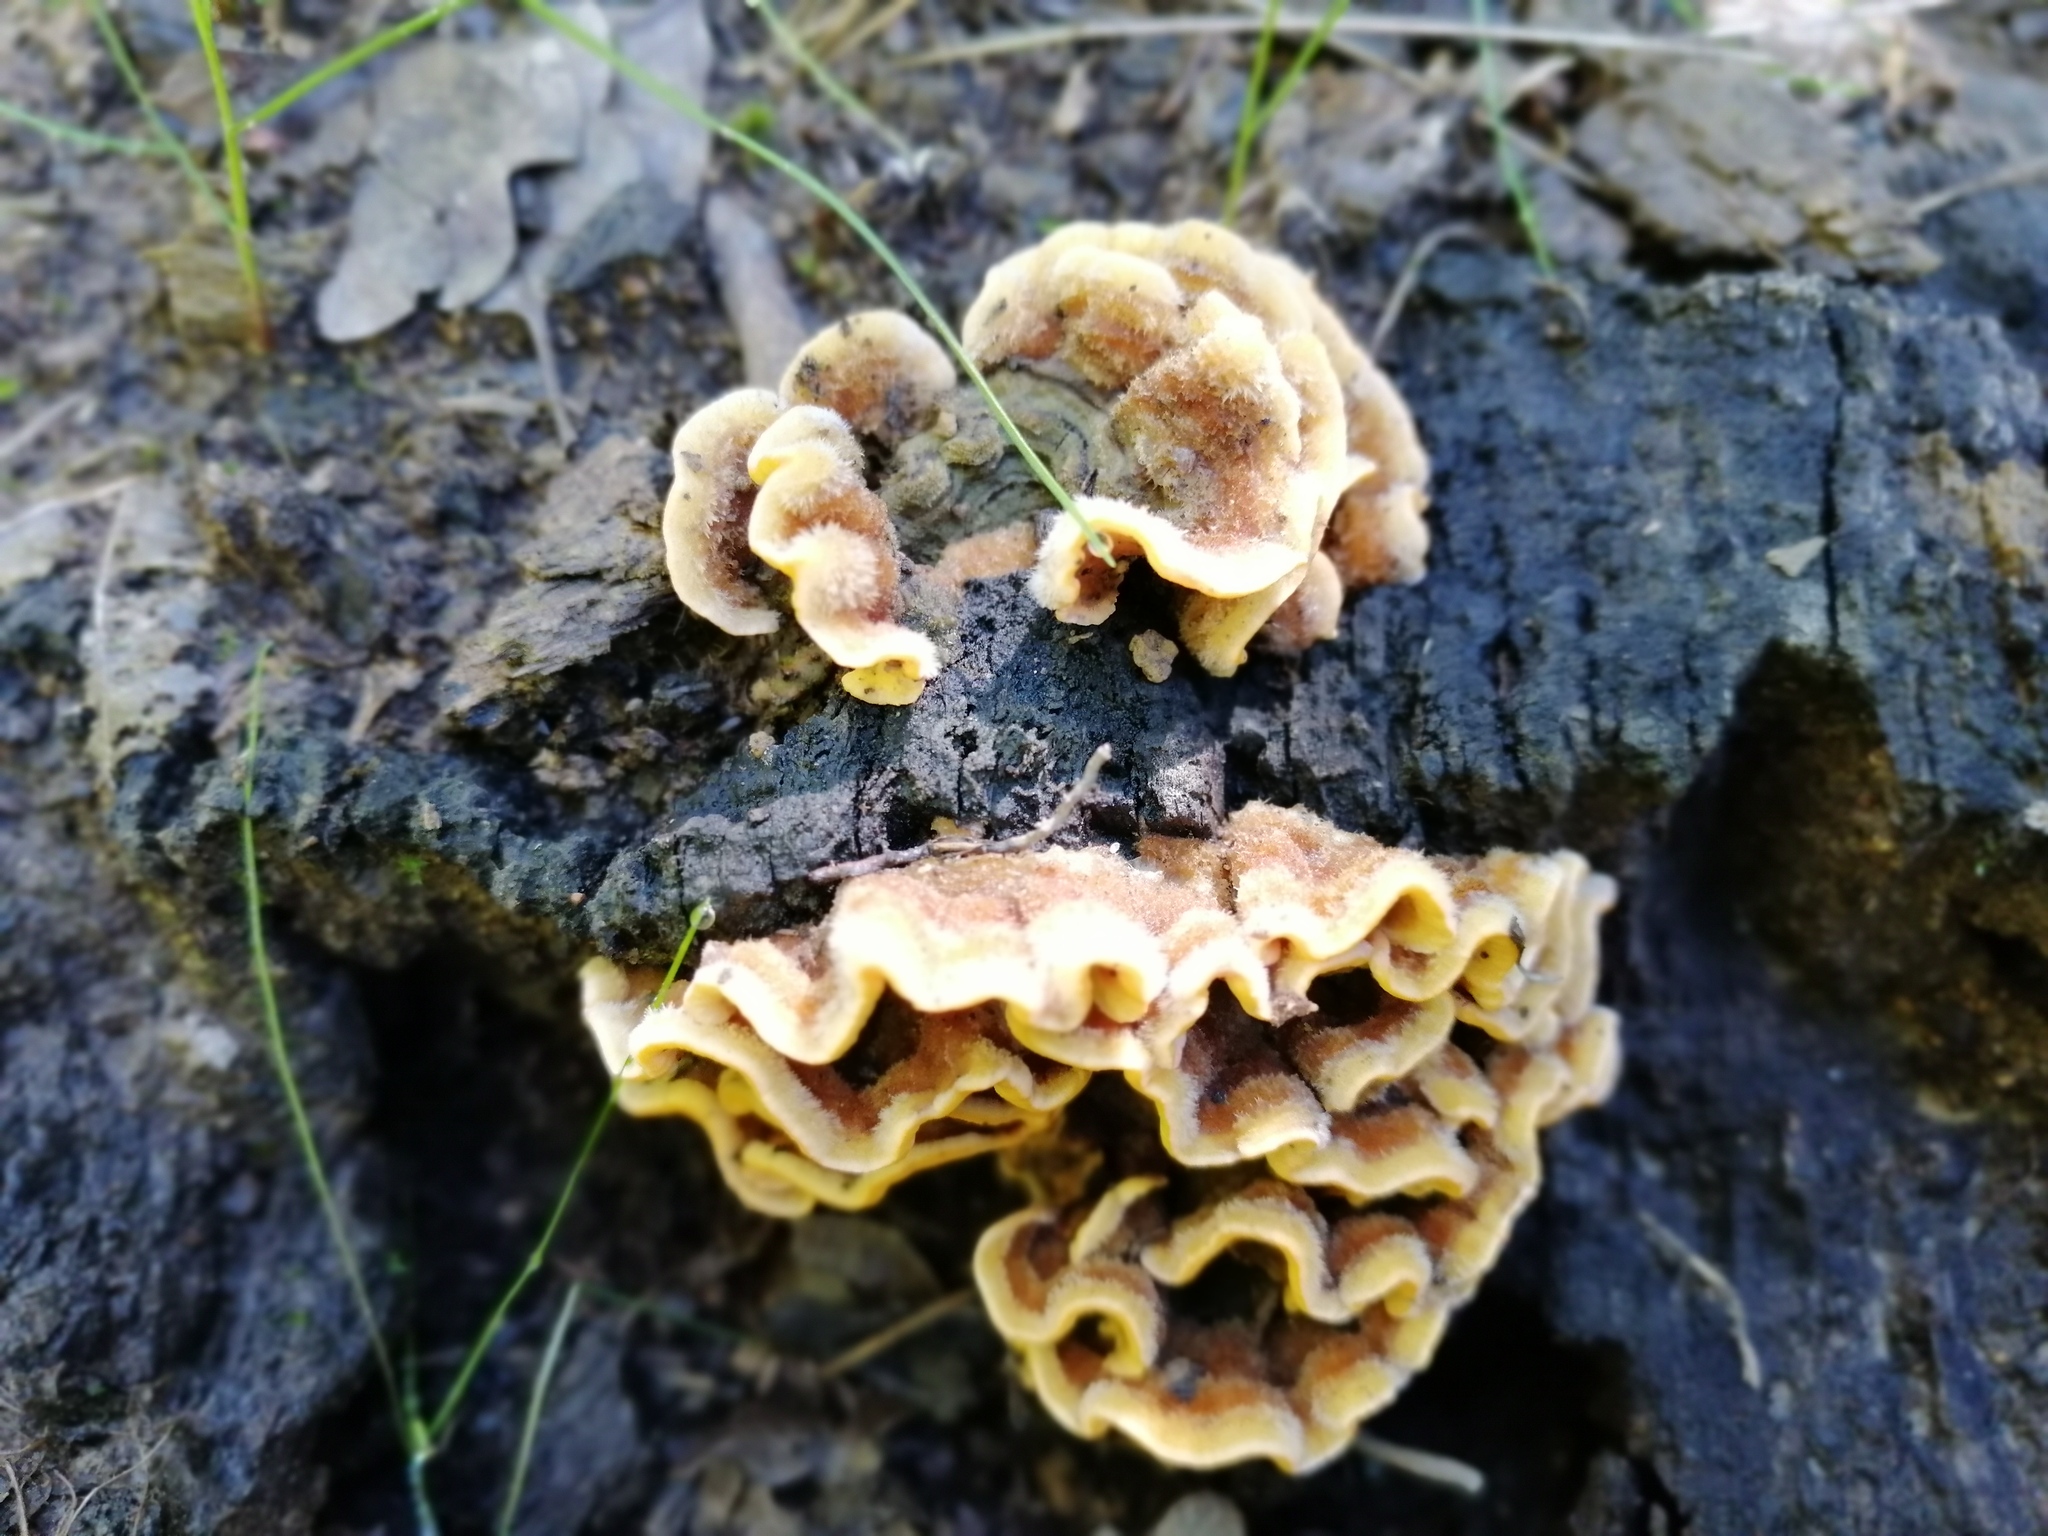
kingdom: Fungi
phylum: Basidiomycota
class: Agaricomycetes
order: Russulales
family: Stereaceae
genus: Stereum
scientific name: Stereum hirsutum
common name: Hairy curtain crust
